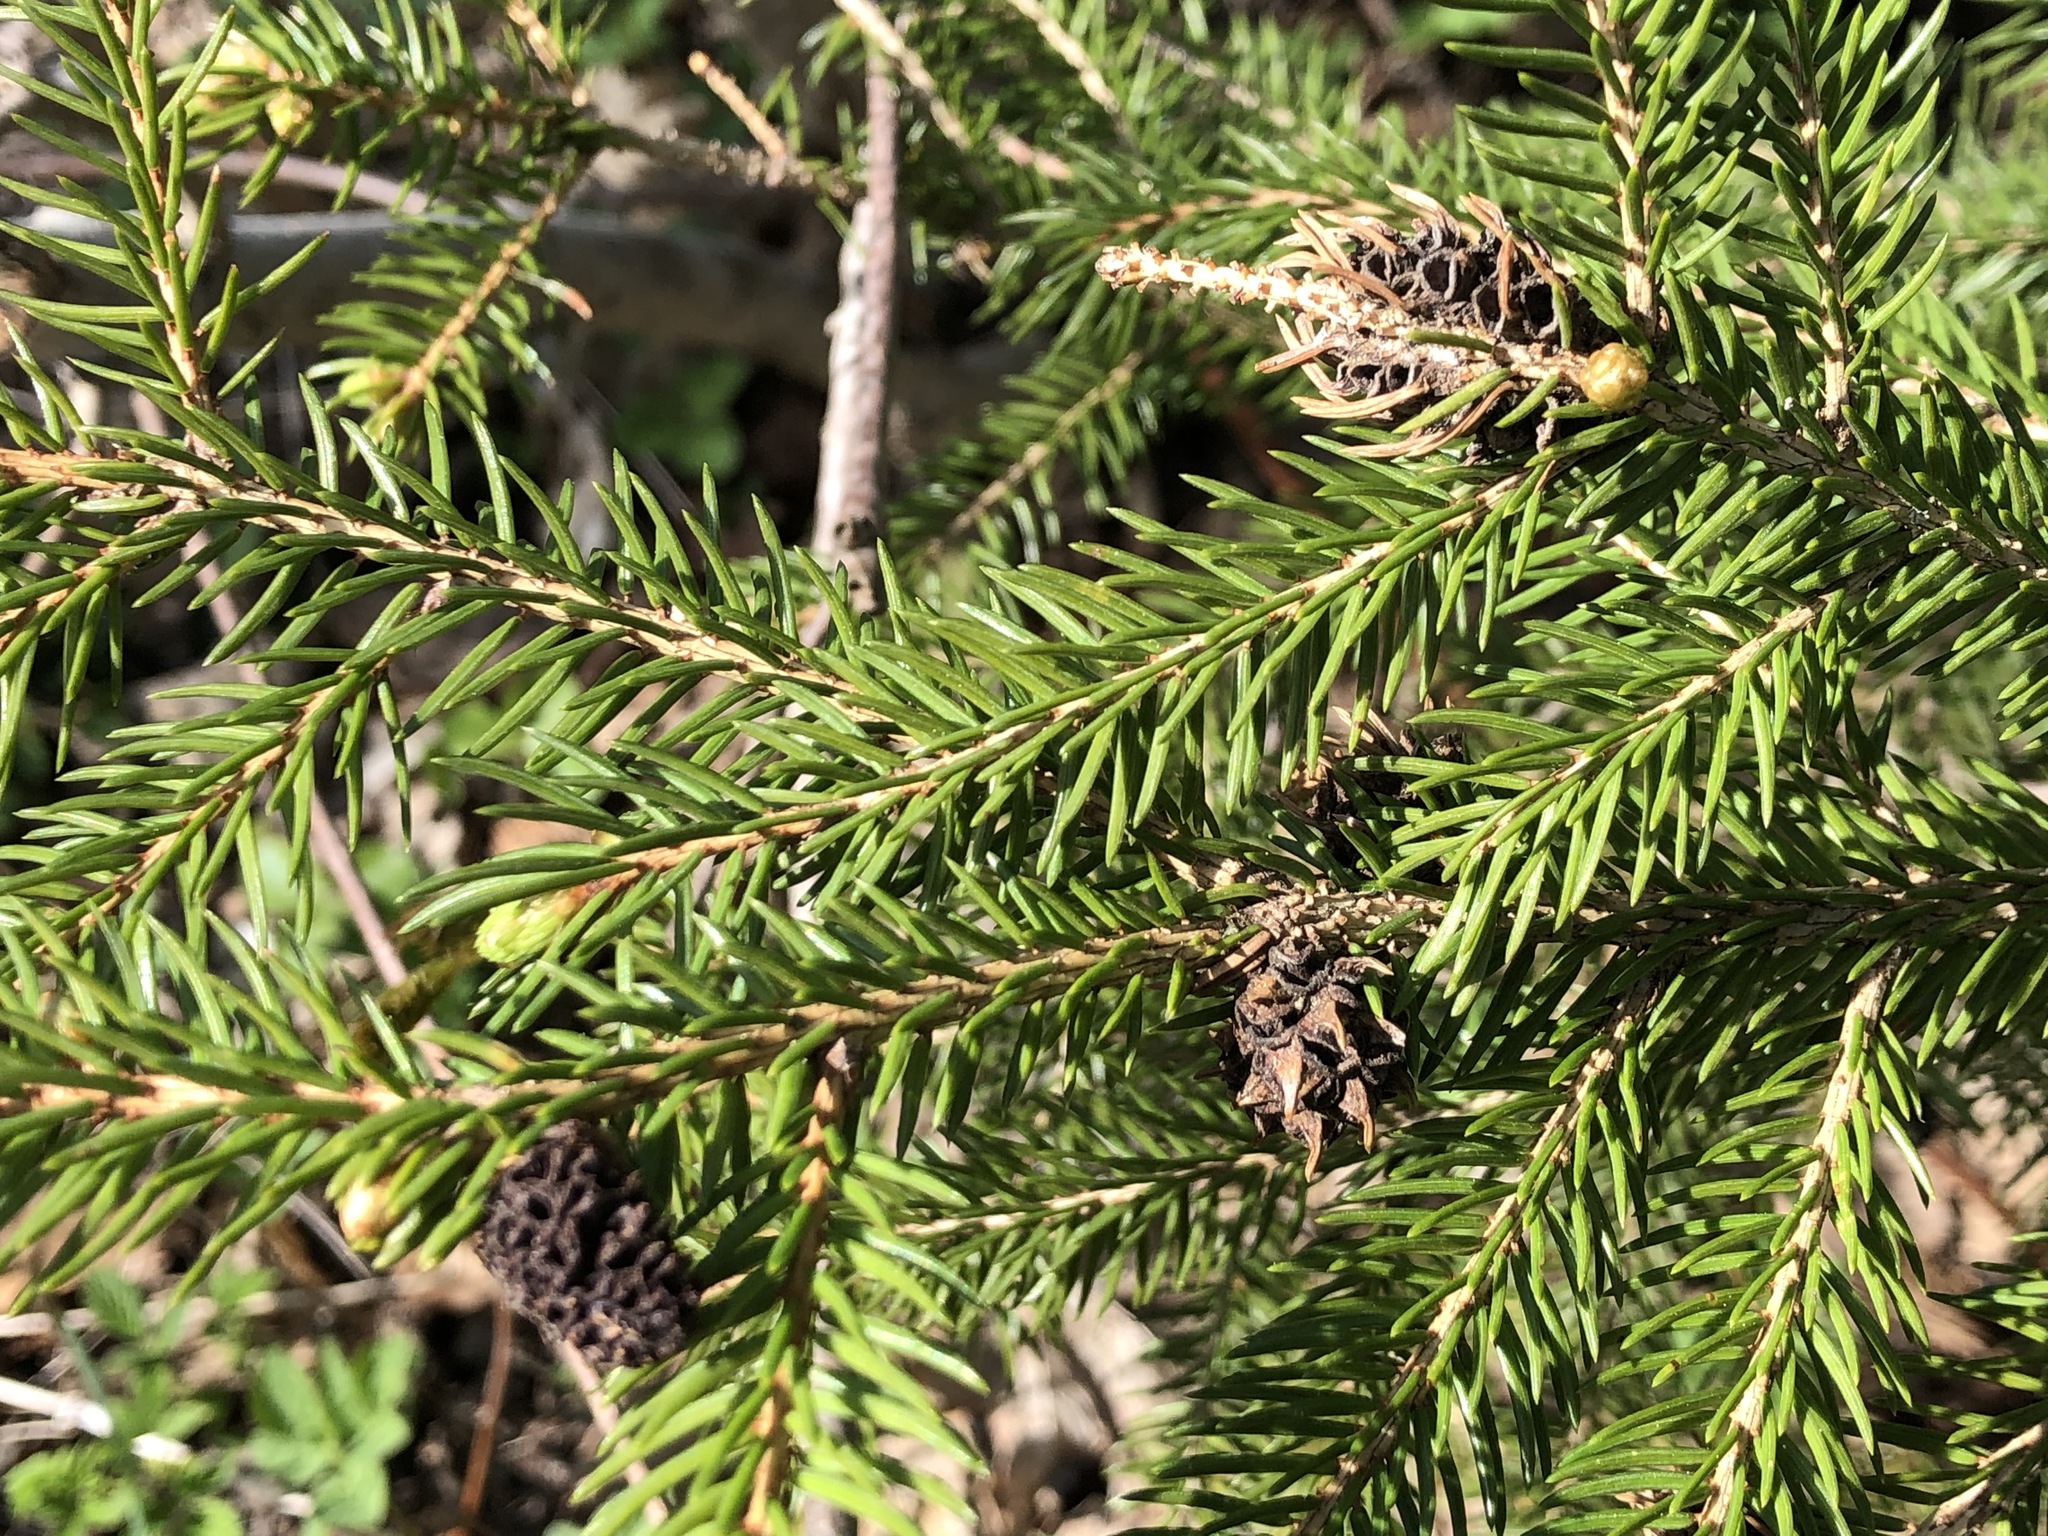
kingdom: Animalia
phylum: Arthropoda
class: Insecta
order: Hemiptera
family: Adelgidae
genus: Adelges
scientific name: Adelges viridis
